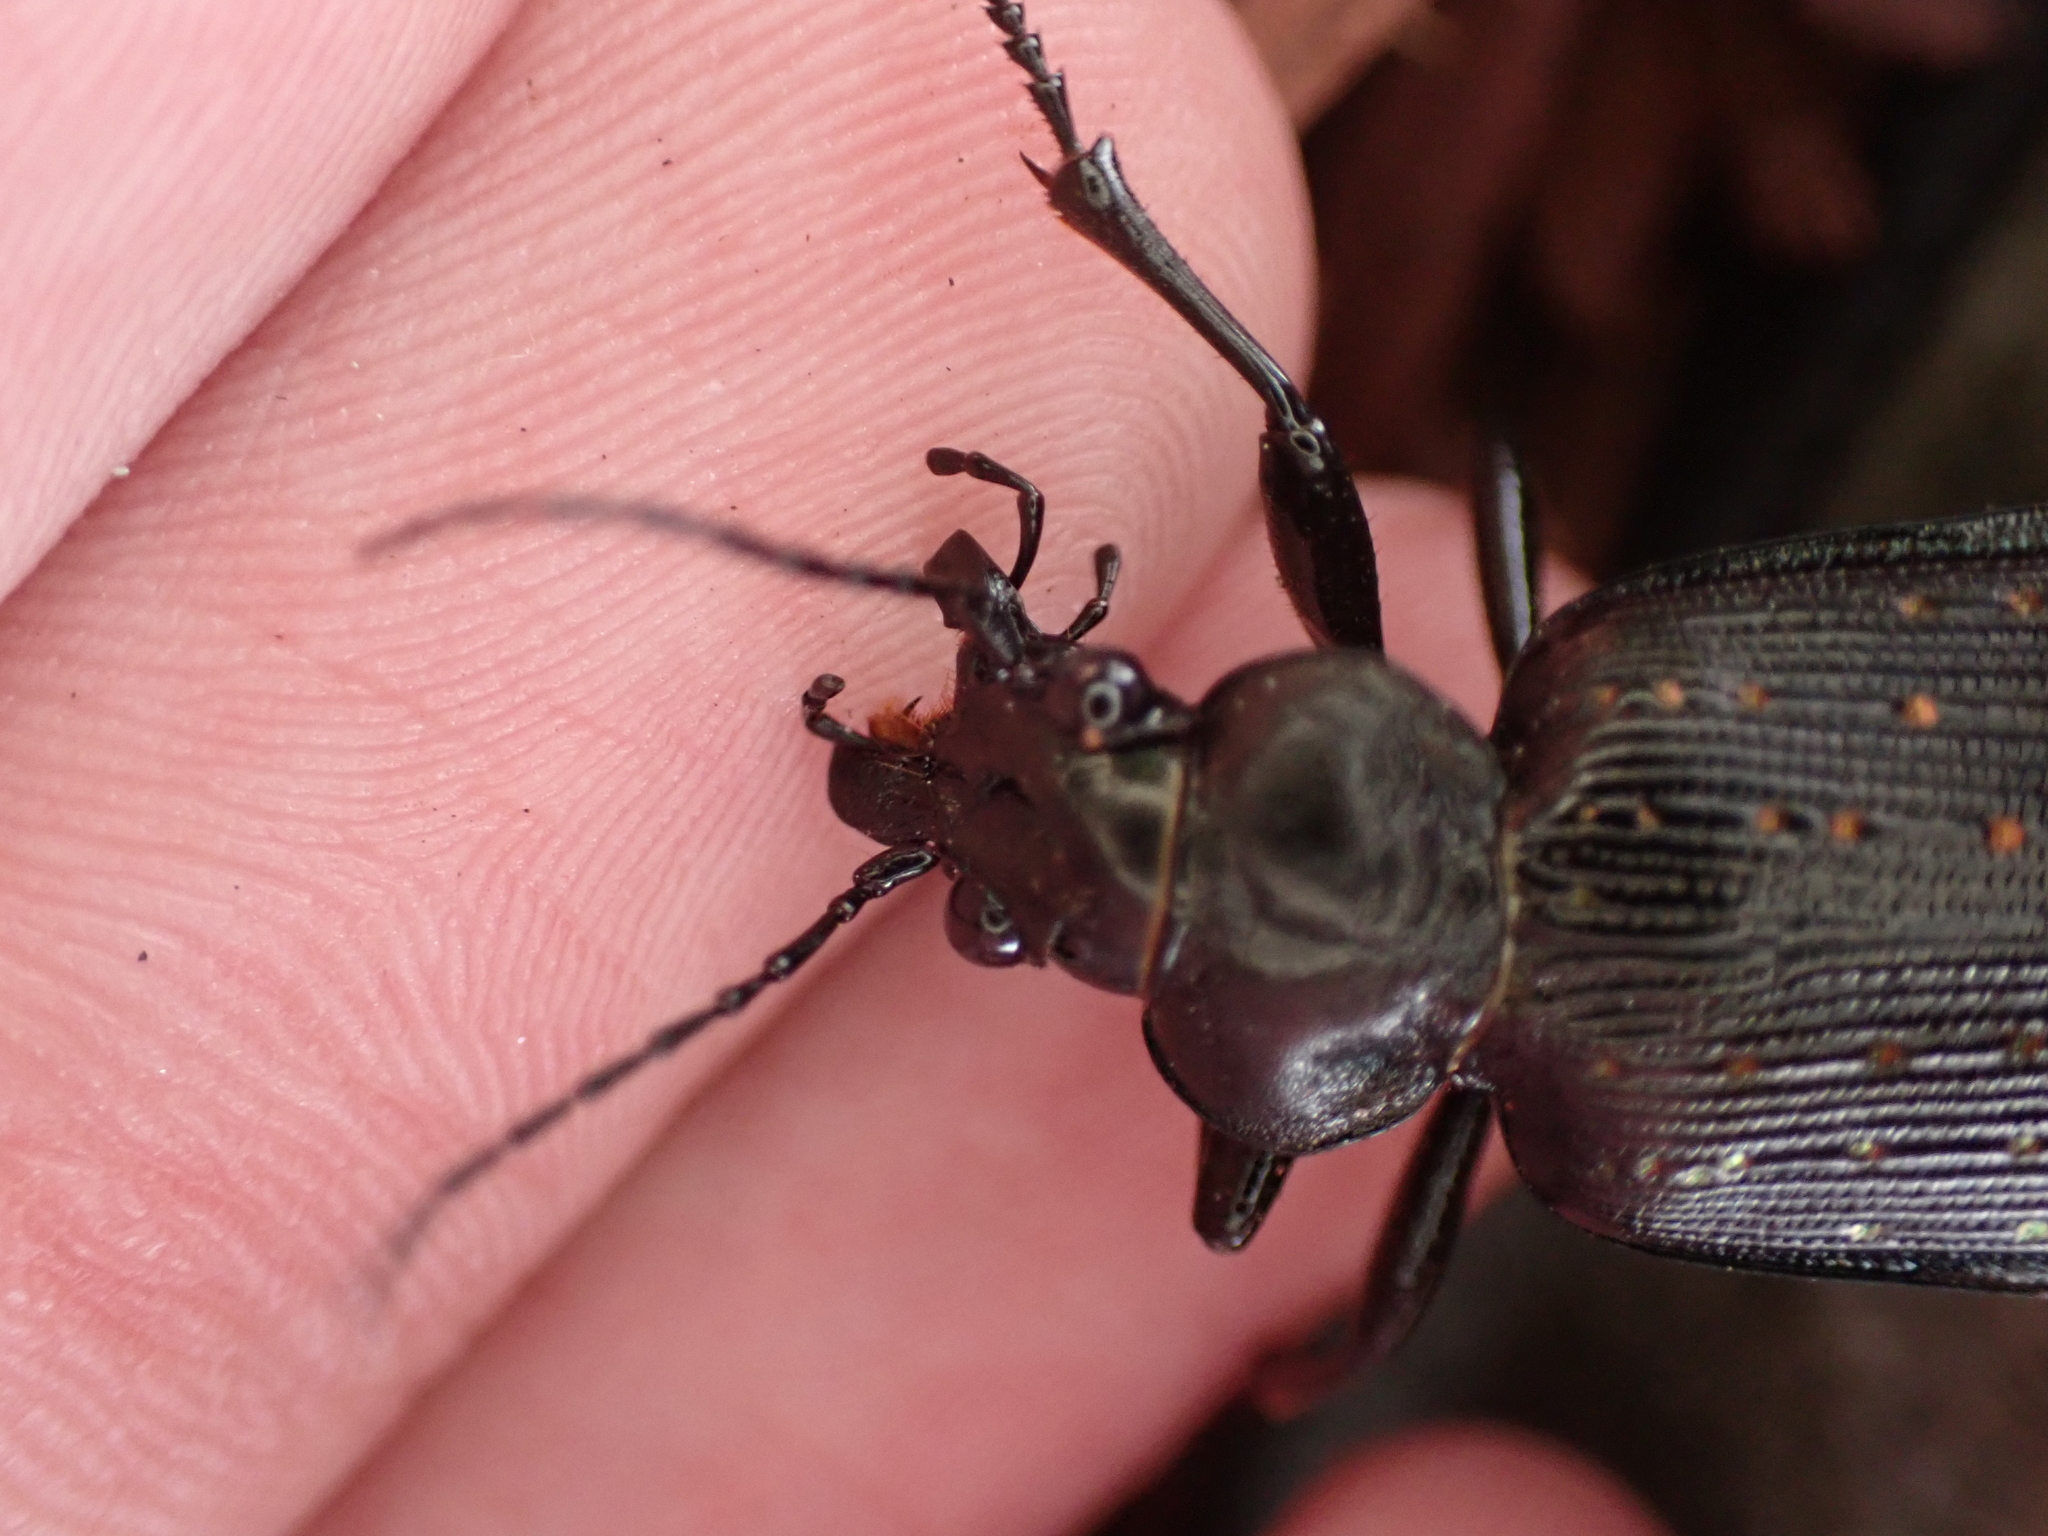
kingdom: Animalia
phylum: Arthropoda
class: Insecta
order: Coleoptera
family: Carabidae
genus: Calosoma
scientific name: Calosoma sayi
